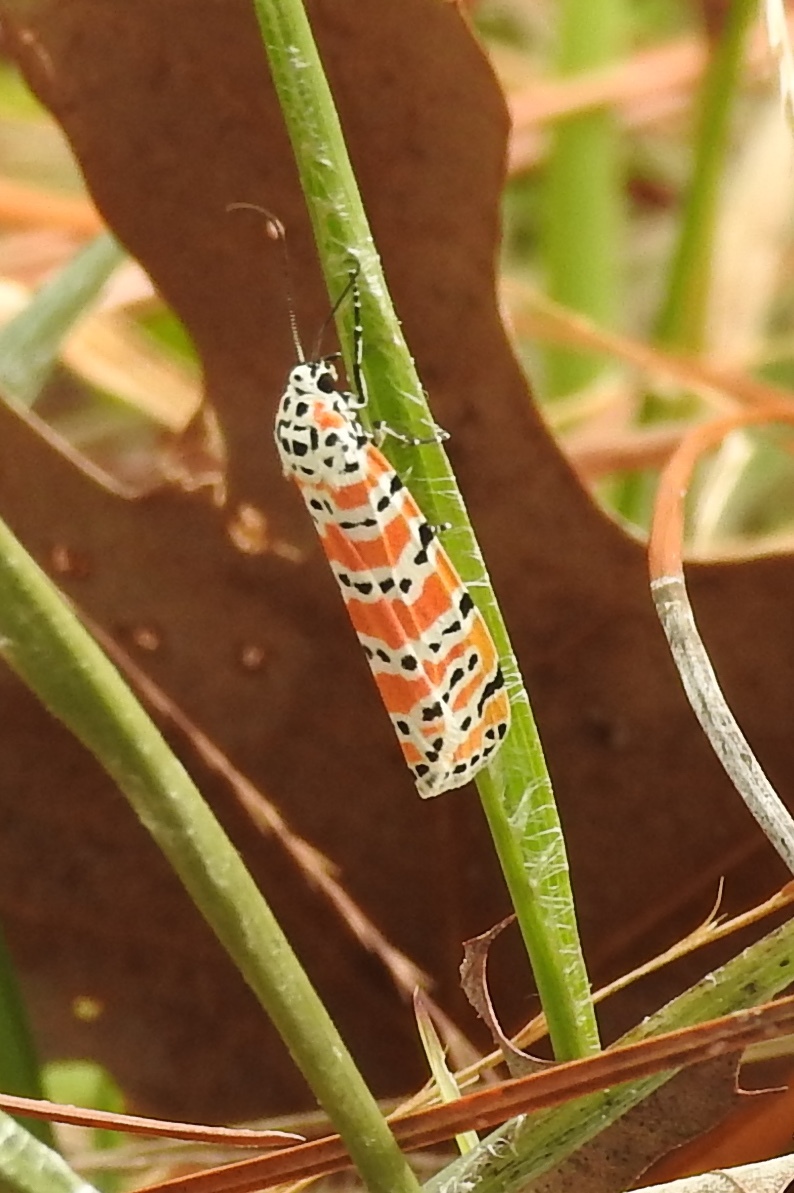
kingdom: Animalia
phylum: Arthropoda
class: Insecta
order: Lepidoptera
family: Erebidae
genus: Utetheisa
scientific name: Utetheisa ornatrix
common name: Beautiful utetheisa
